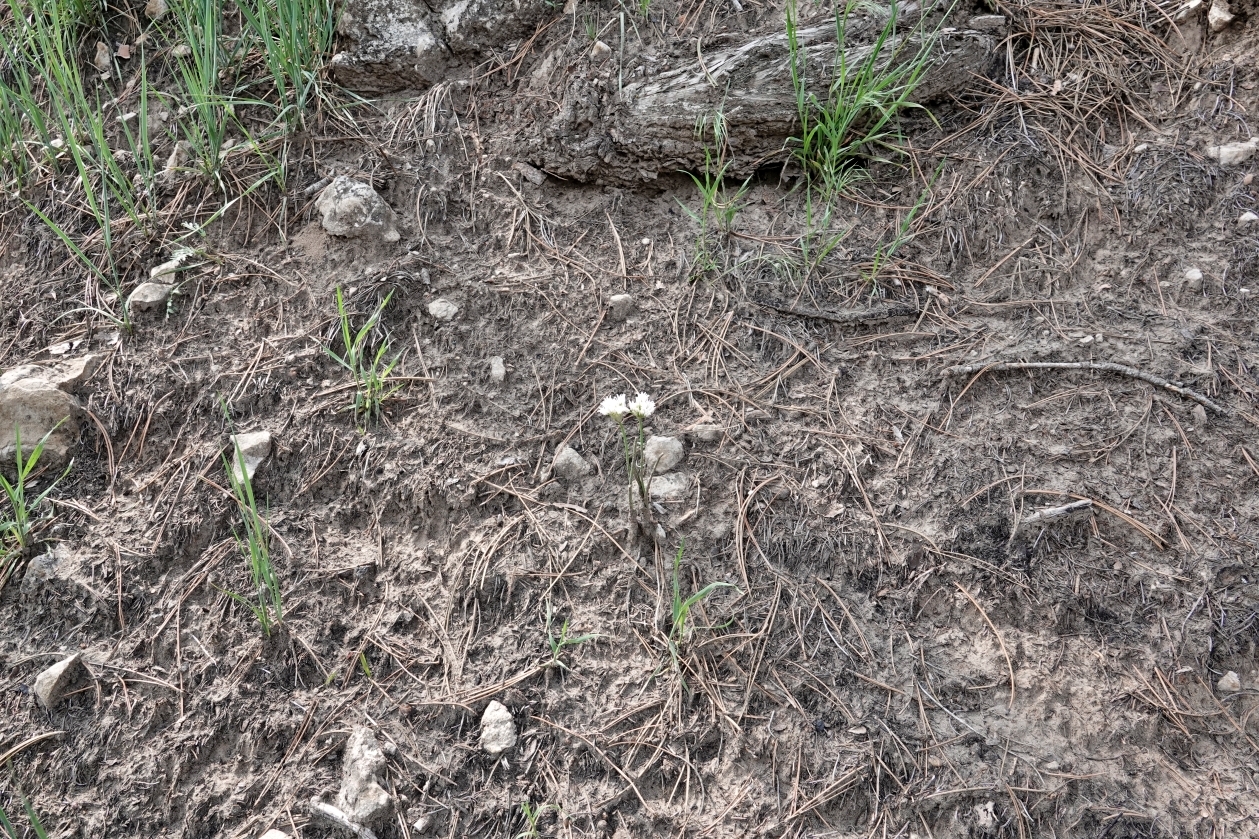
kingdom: Plantae
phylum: Tracheophyta
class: Liliopsida
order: Asparagales
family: Amaryllidaceae
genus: Allium
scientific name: Allium textile
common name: Prairie onion
